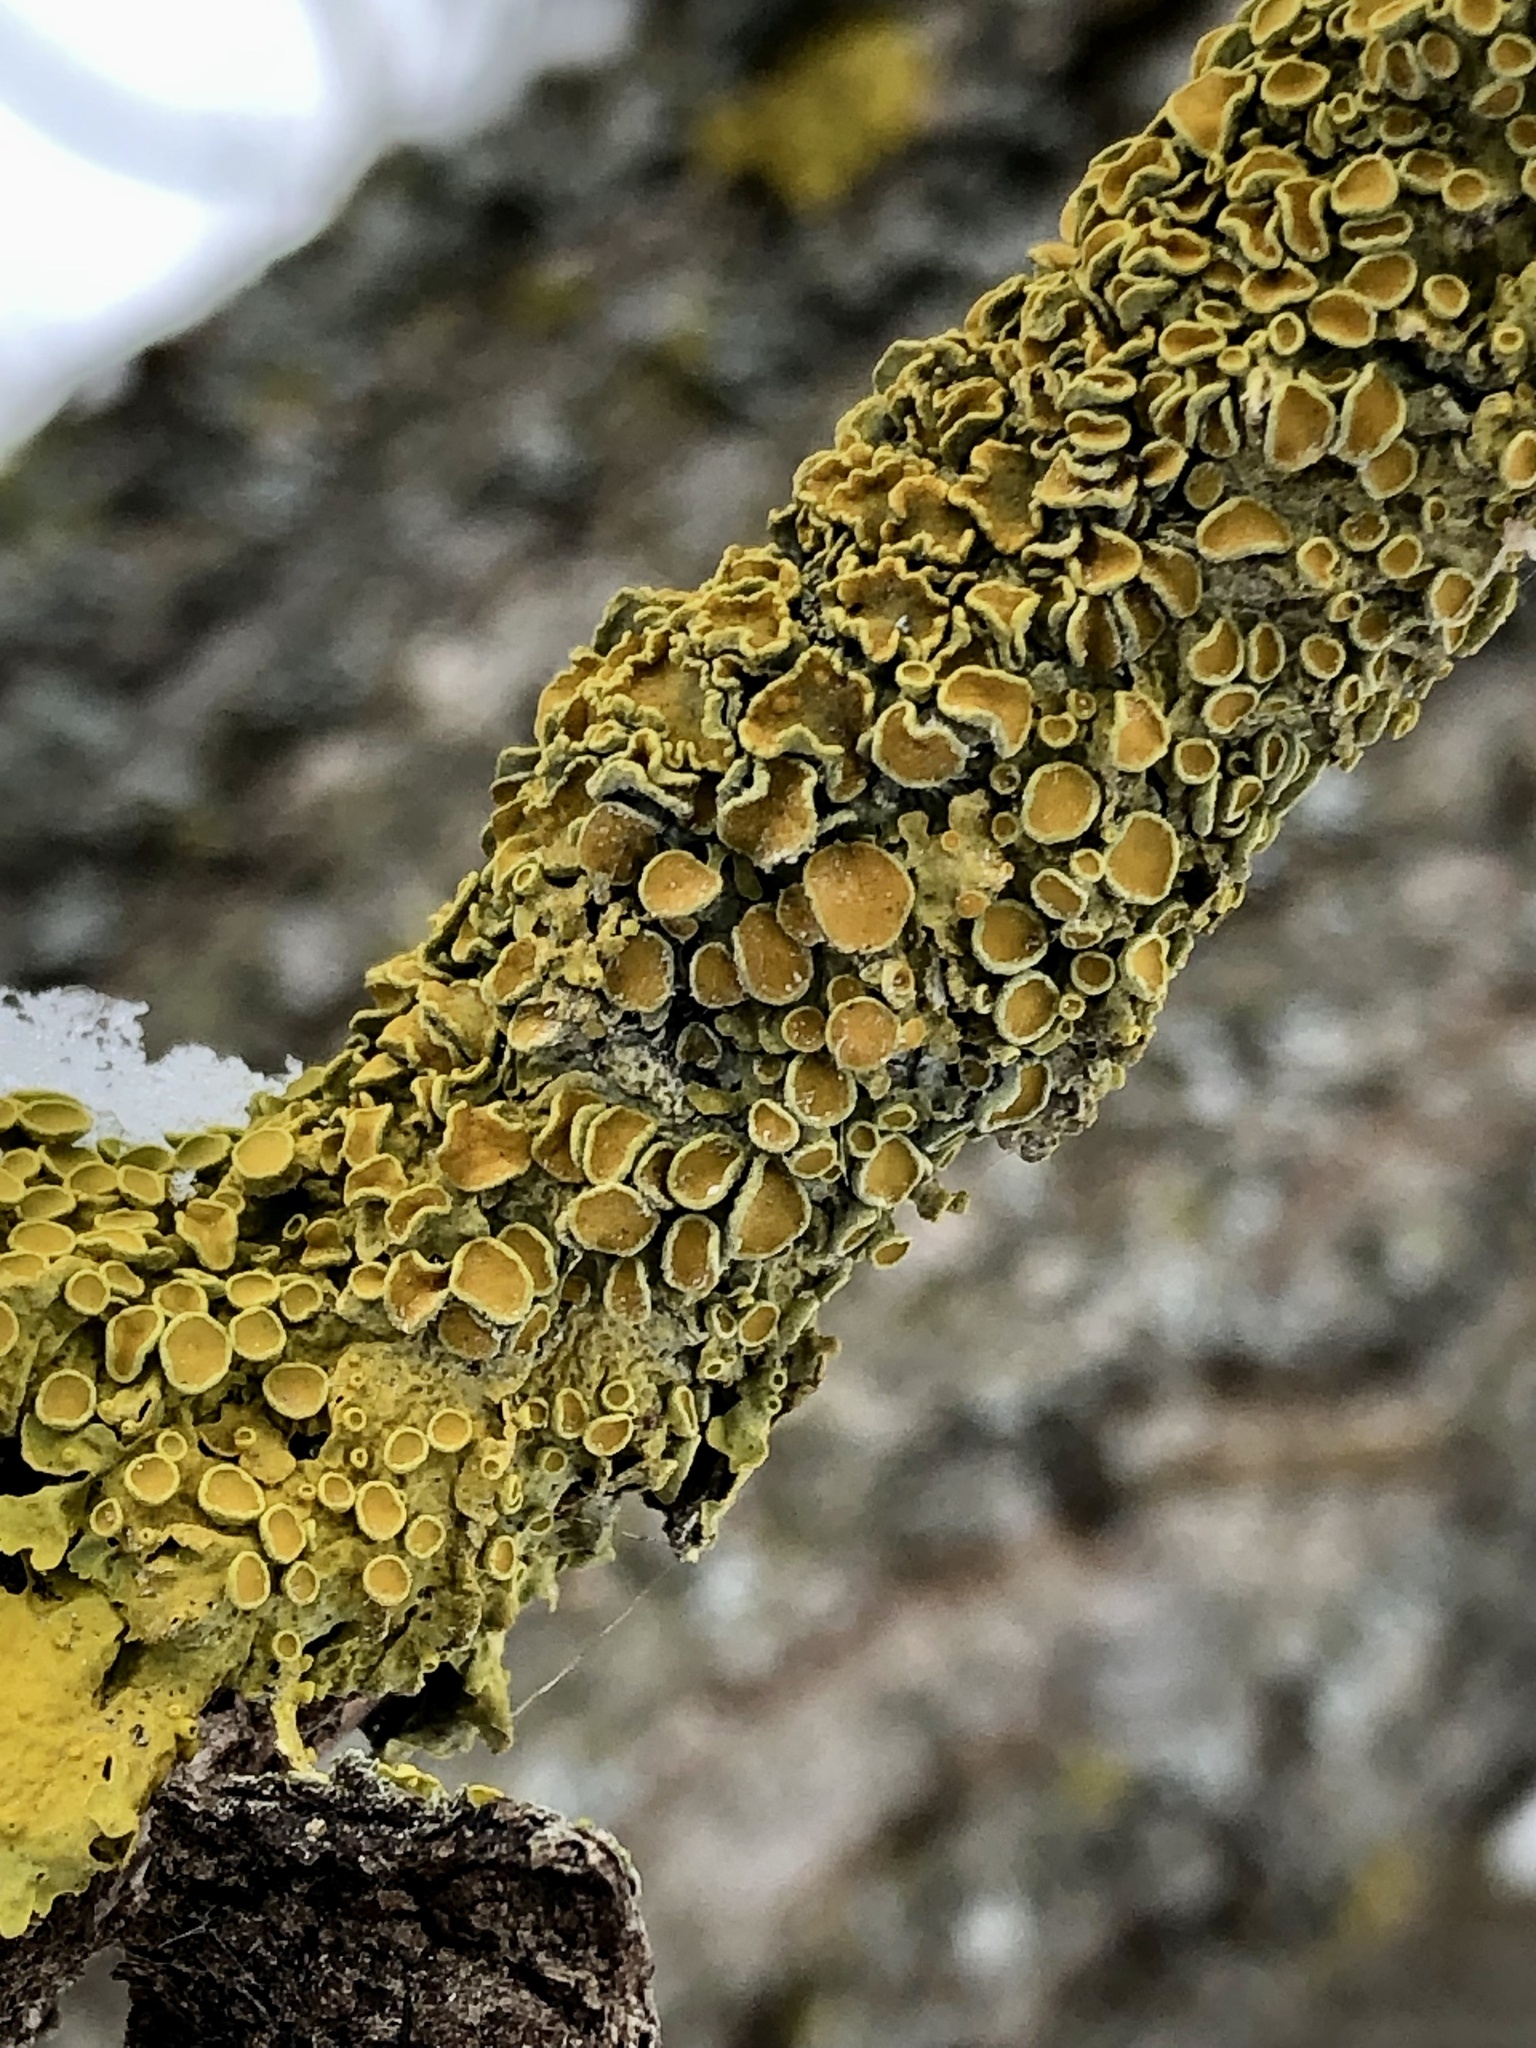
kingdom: Fungi
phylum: Ascomycota
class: Lecanoromycetes
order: Teloschistales
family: Teloschistaceae
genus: Xanthoria
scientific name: Xanthoria parietina
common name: Common orange lichen
